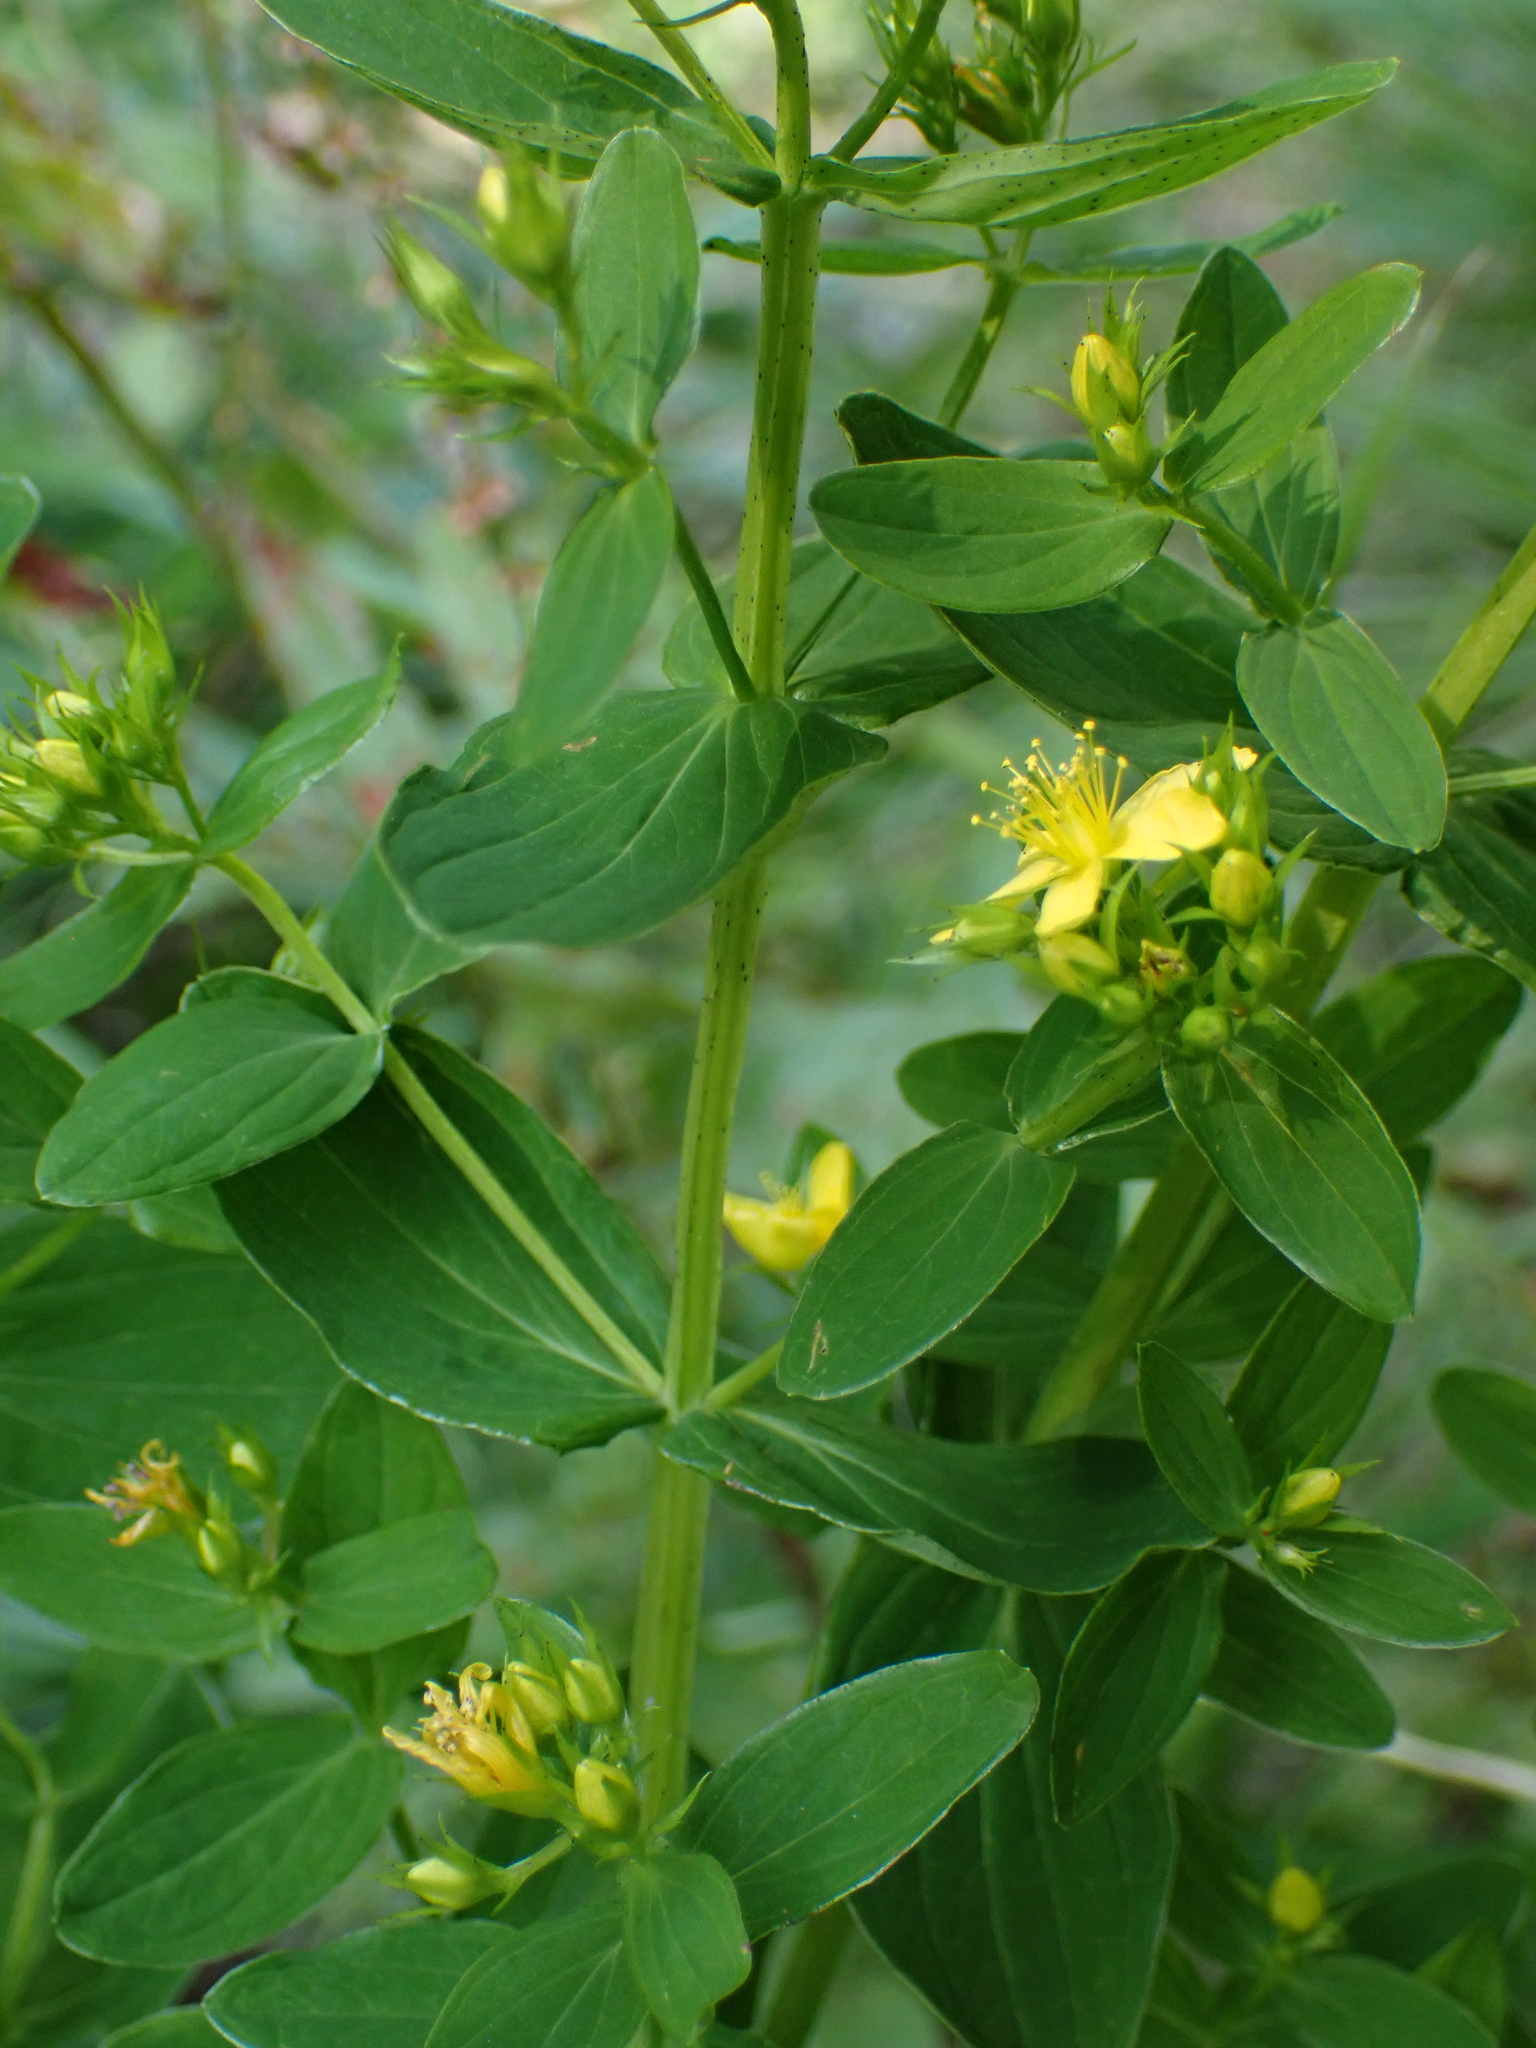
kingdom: Plantae
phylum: Tracheophyta
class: Magnoliopsida
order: Malpighiales
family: Hypericaceae
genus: Hypericum
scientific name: Hypericum tetrapterum
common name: Square-stalked st. john's-wort
